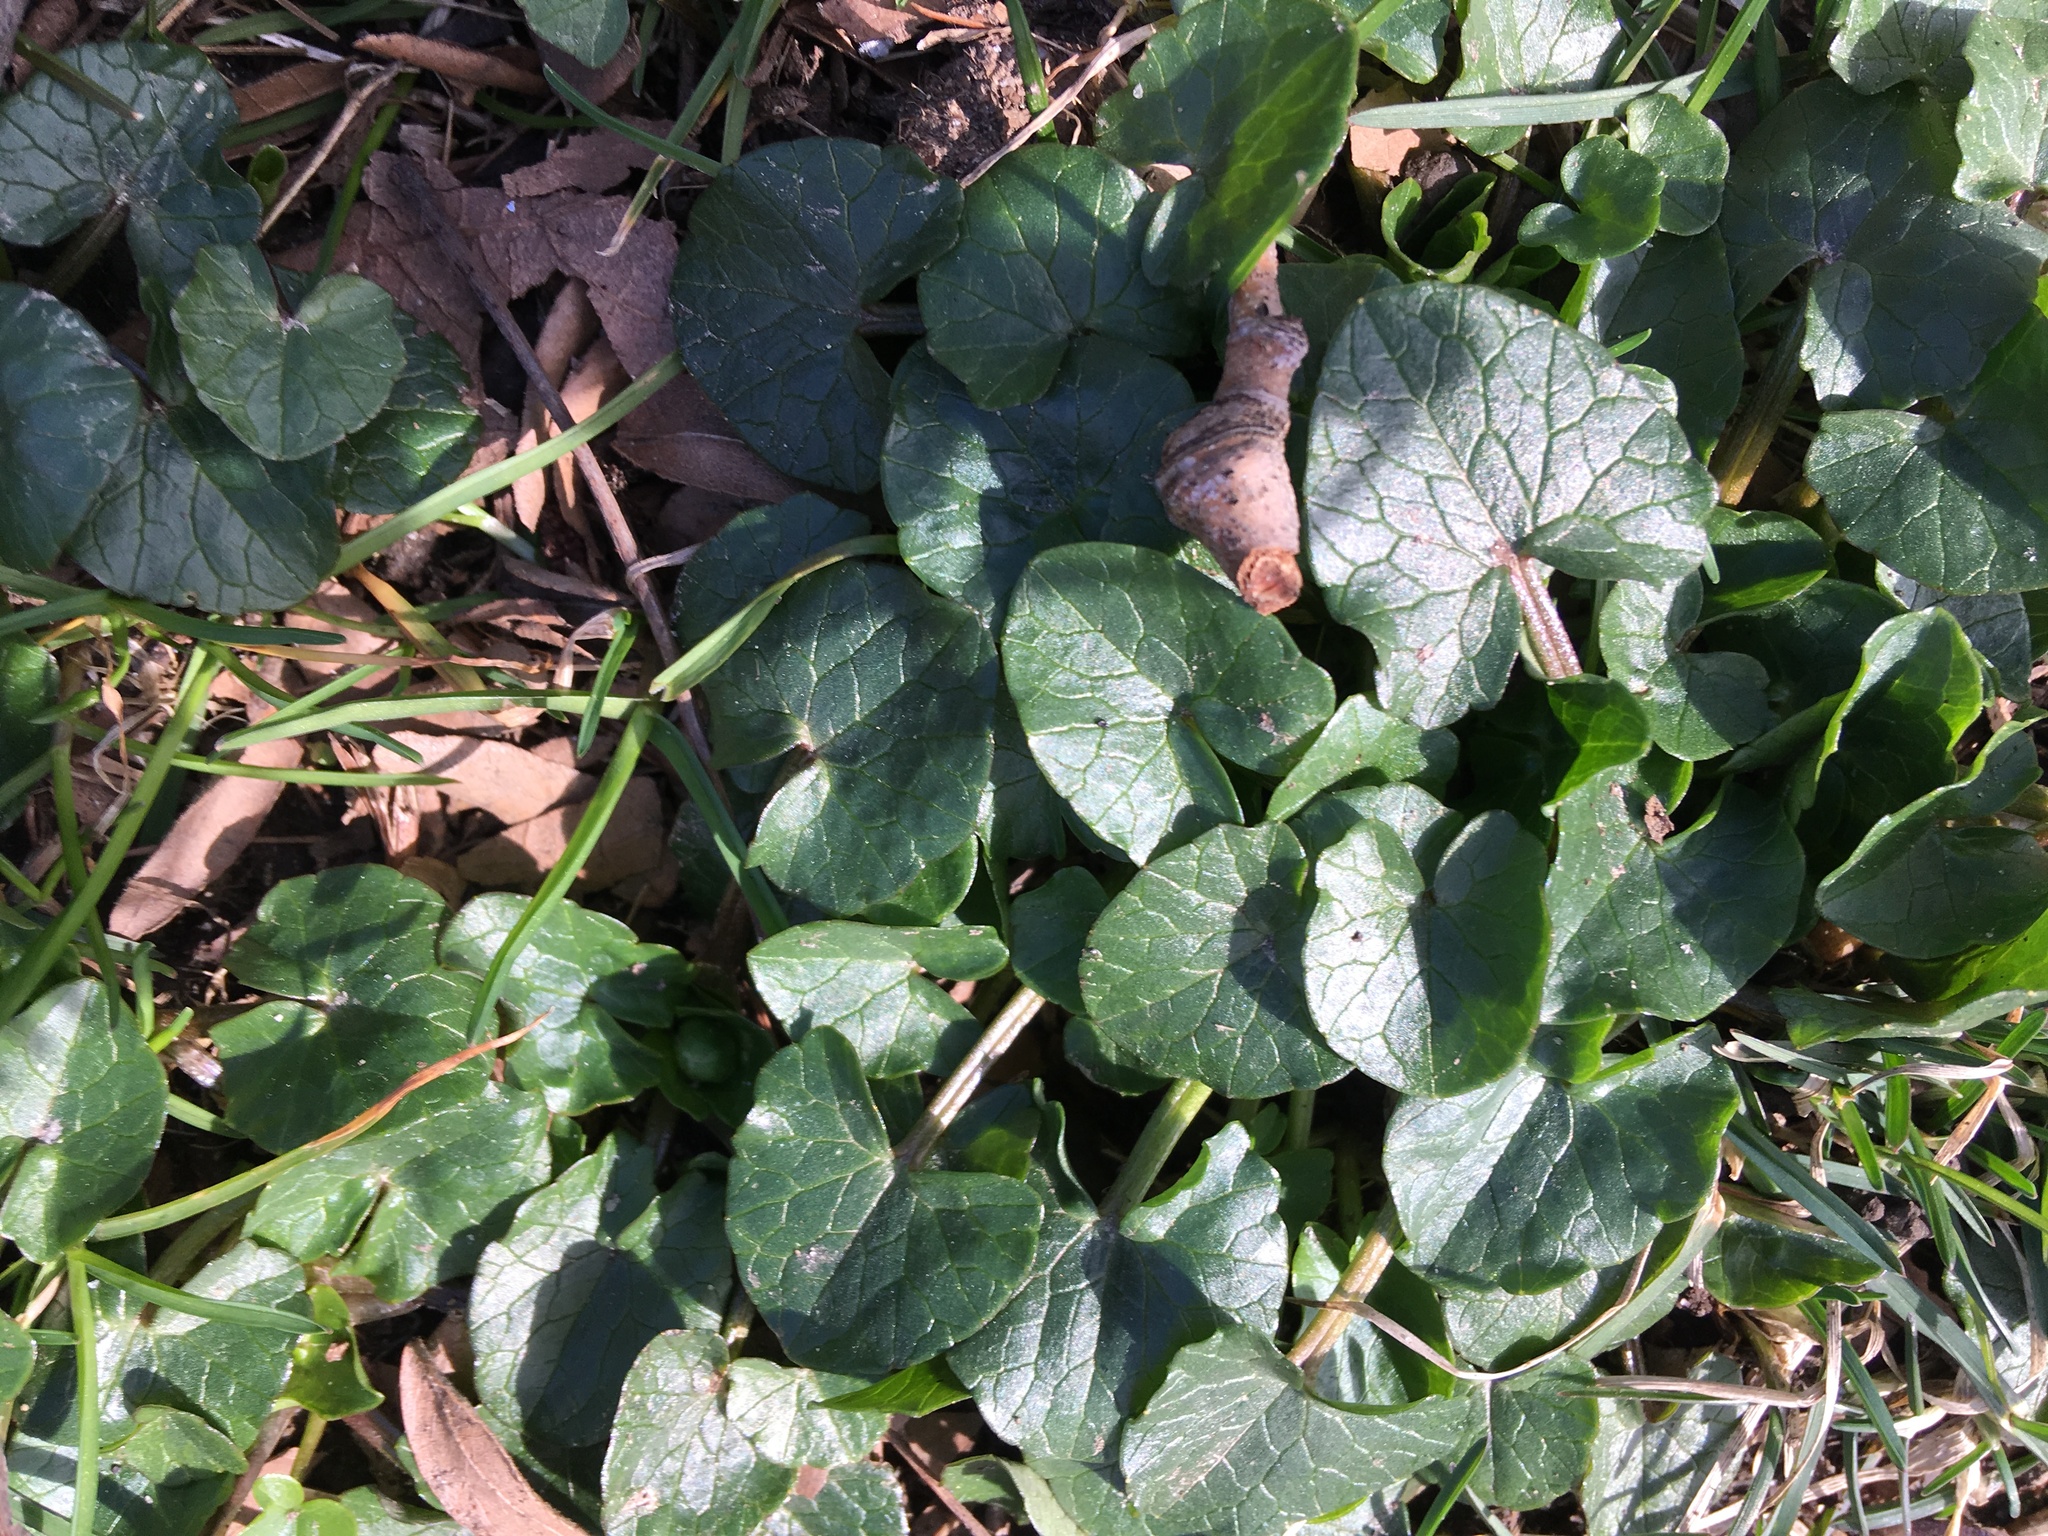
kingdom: Plantae
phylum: Tracheophyta
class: Magnoliopsida
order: Ranunculales
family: Ranunculaceae
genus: Ficaria
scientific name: Ficaria verna
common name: Lesser celandine
